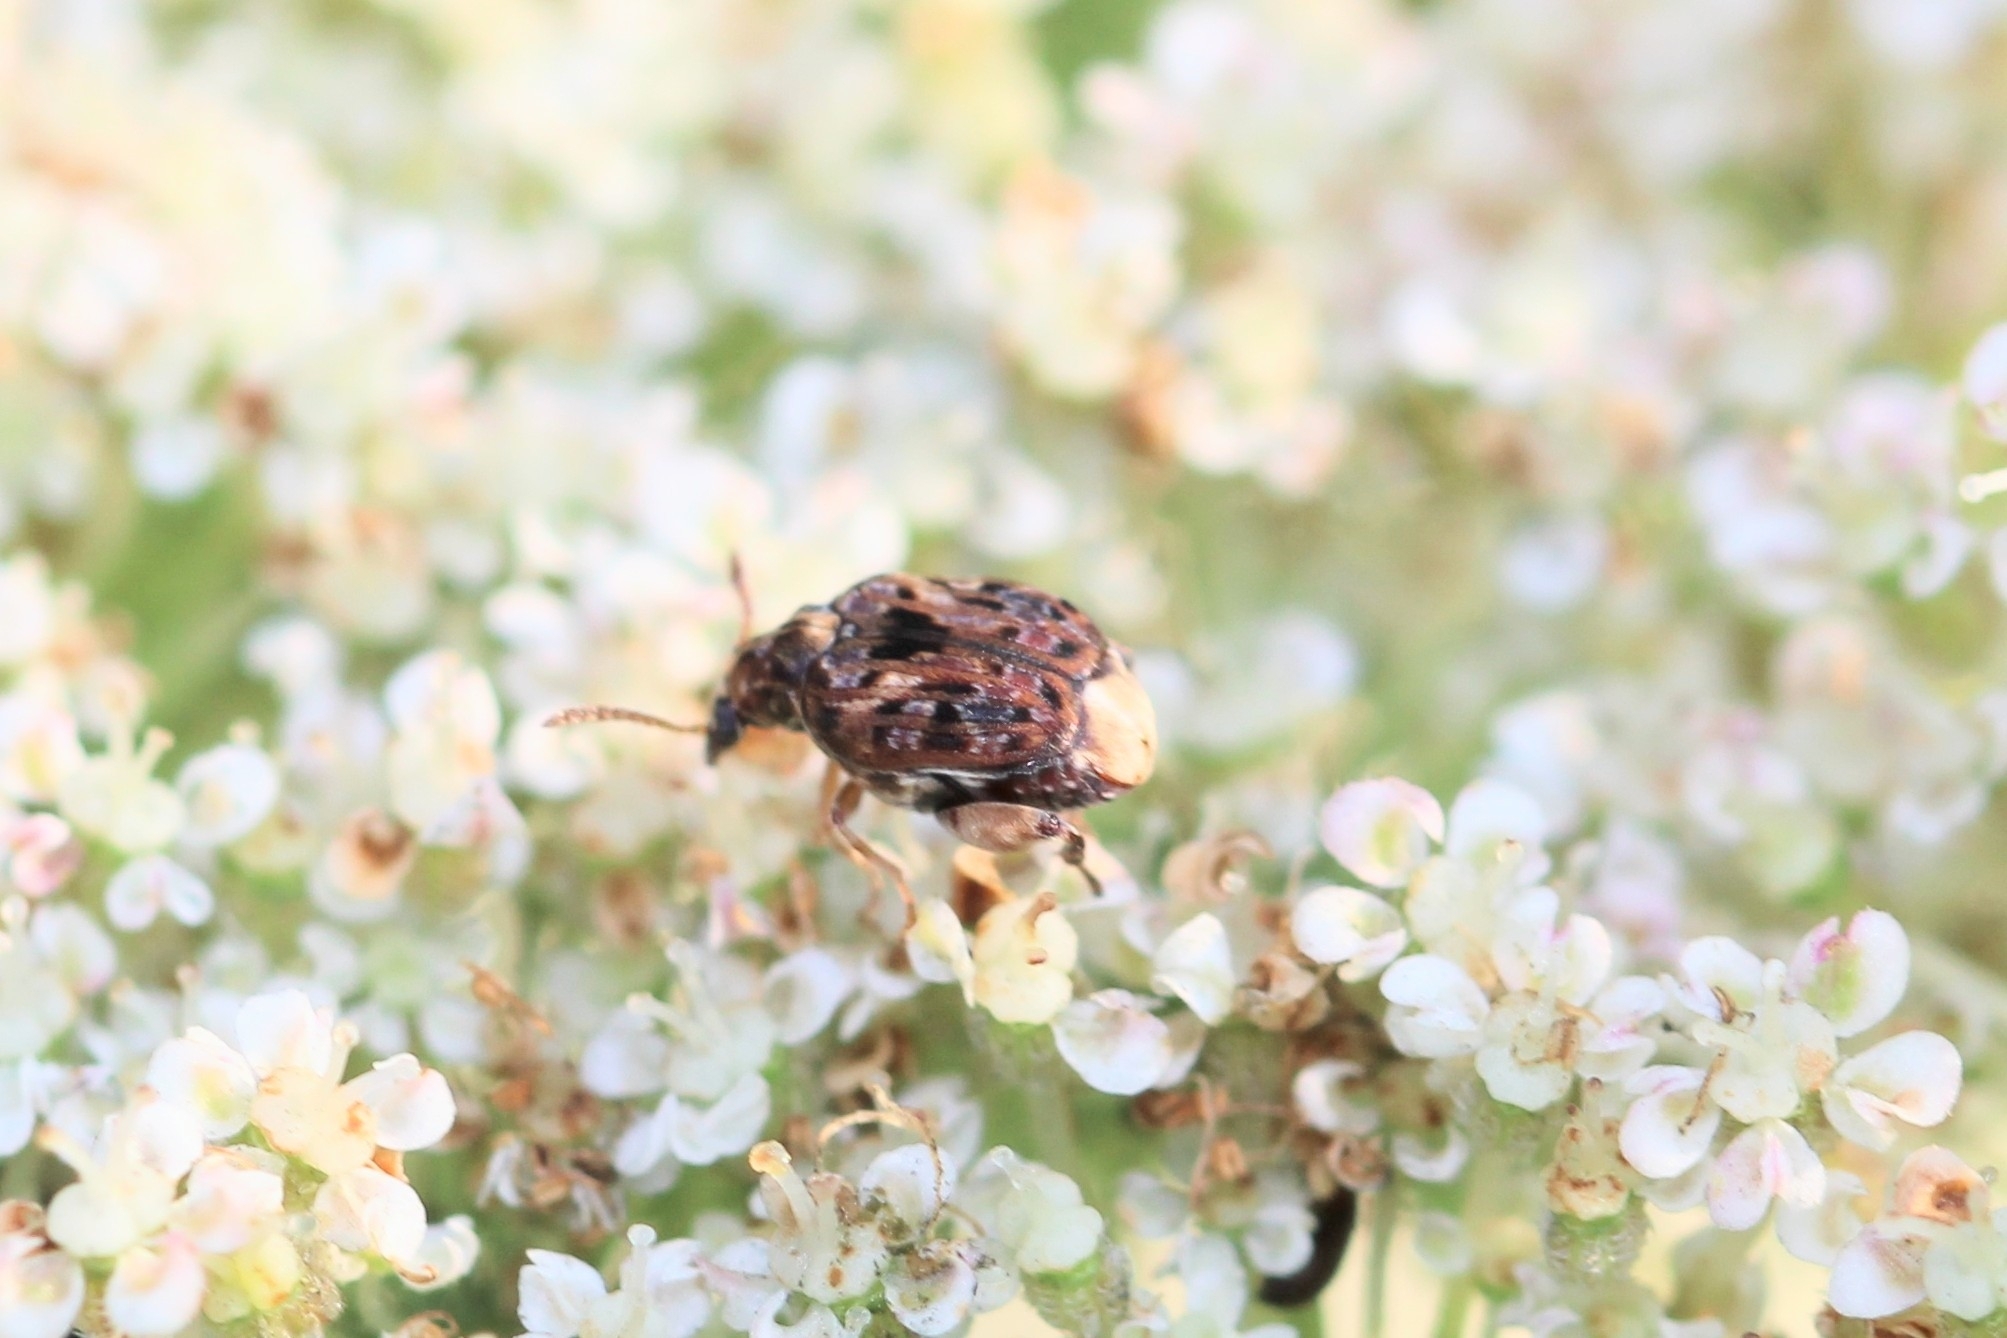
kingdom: Animalia
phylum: Arthropoda
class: Insecta
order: Coleoptera
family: Chrysomelidae
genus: Gibbobruchus
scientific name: Gibbobruchus mimus
